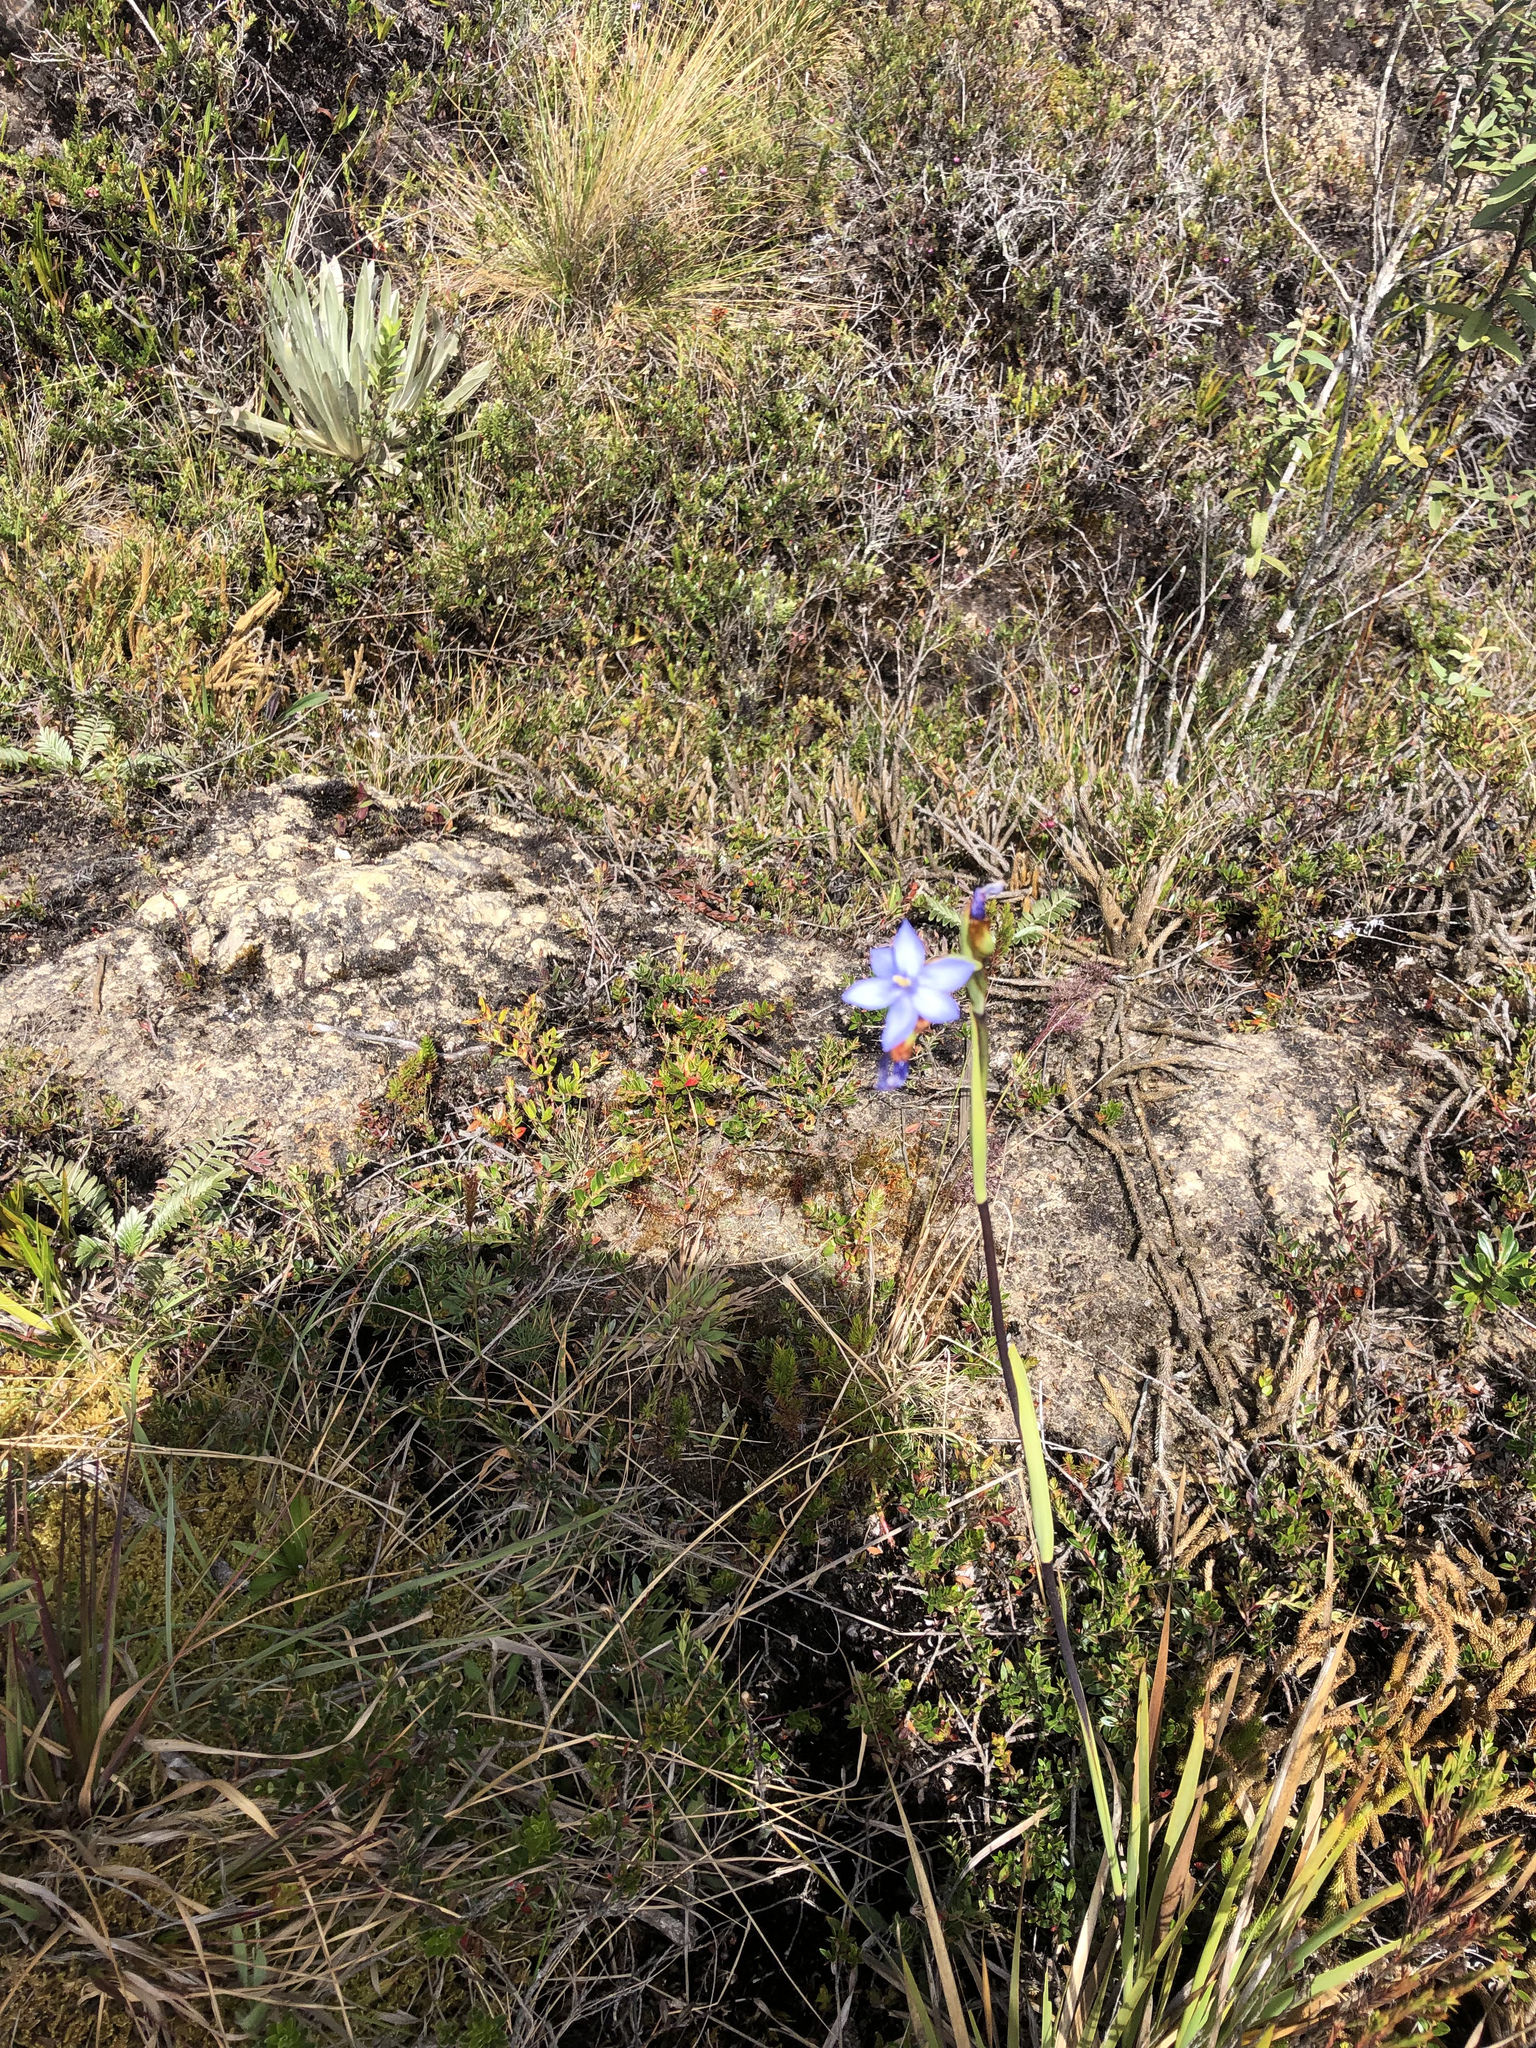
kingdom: Plantae
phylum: Tracheophyta
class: Liliopsida
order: Asparagales
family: Iridaceae
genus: Orthrosanthus
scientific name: Orthrosanthus chimboracensis
